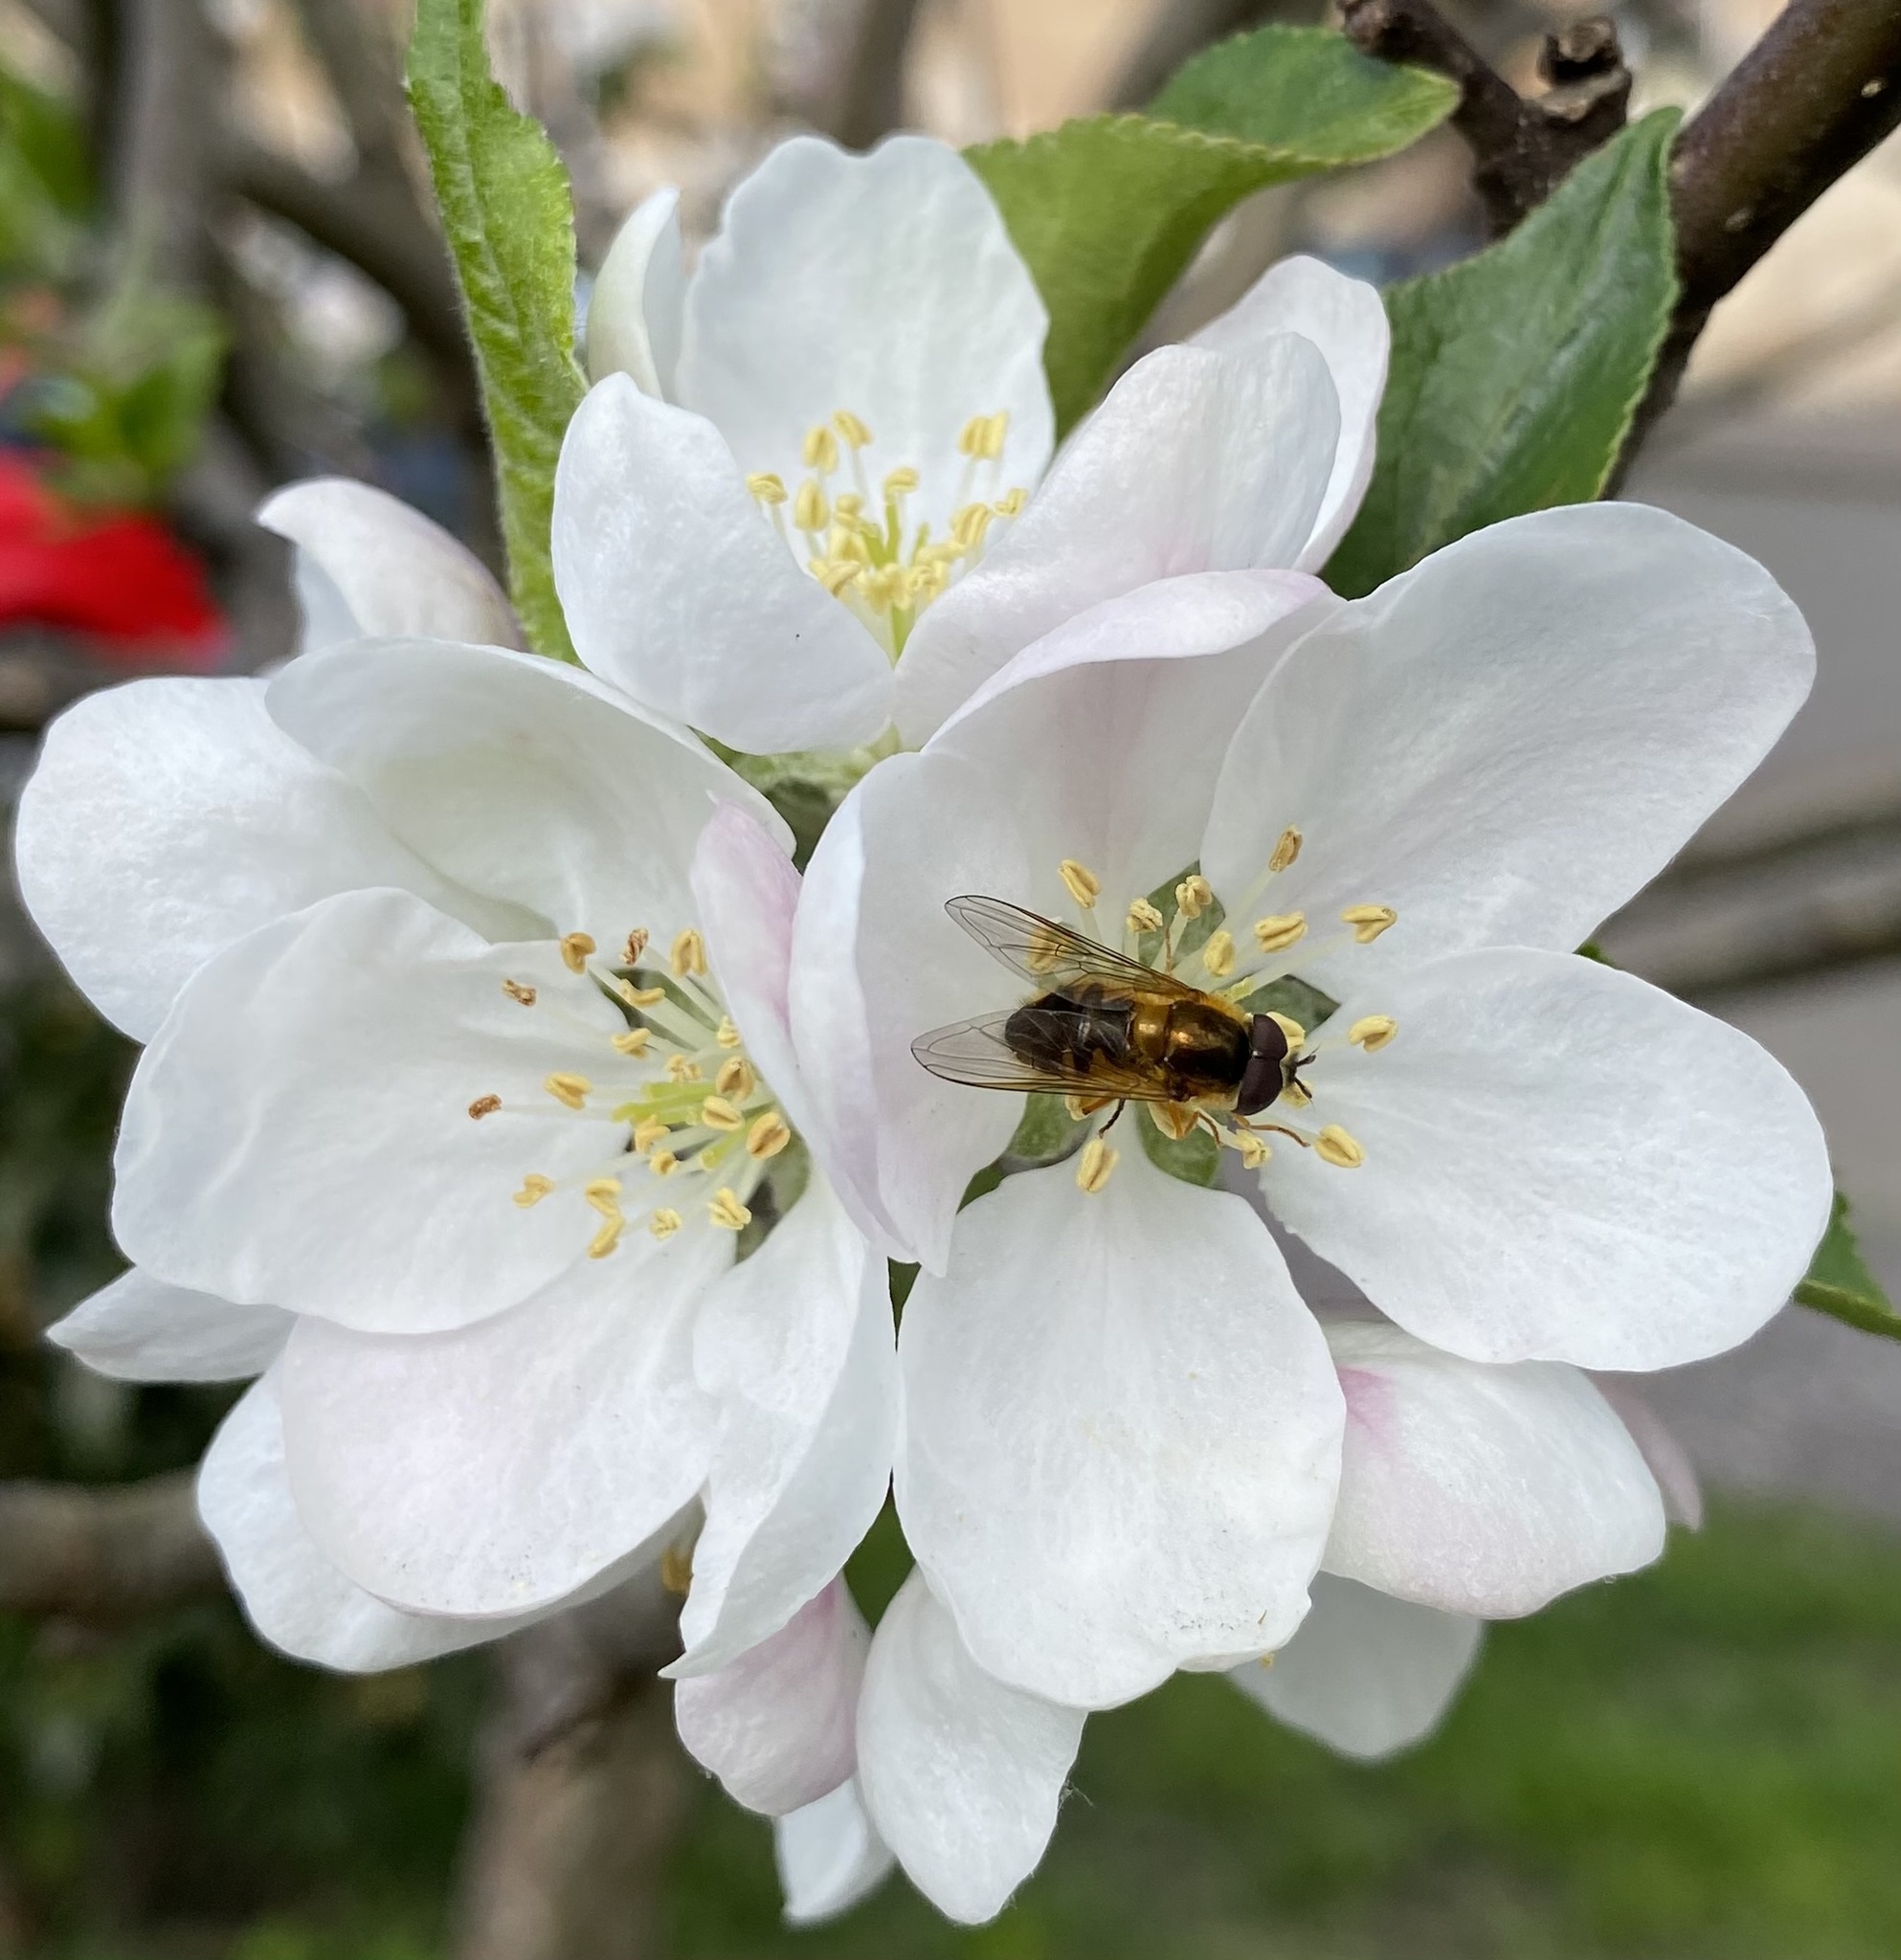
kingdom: Animalia
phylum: Arthropoda
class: Insecta
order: Diptera
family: Syrphidae
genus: Epistrophe
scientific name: Epistrophe eligans
